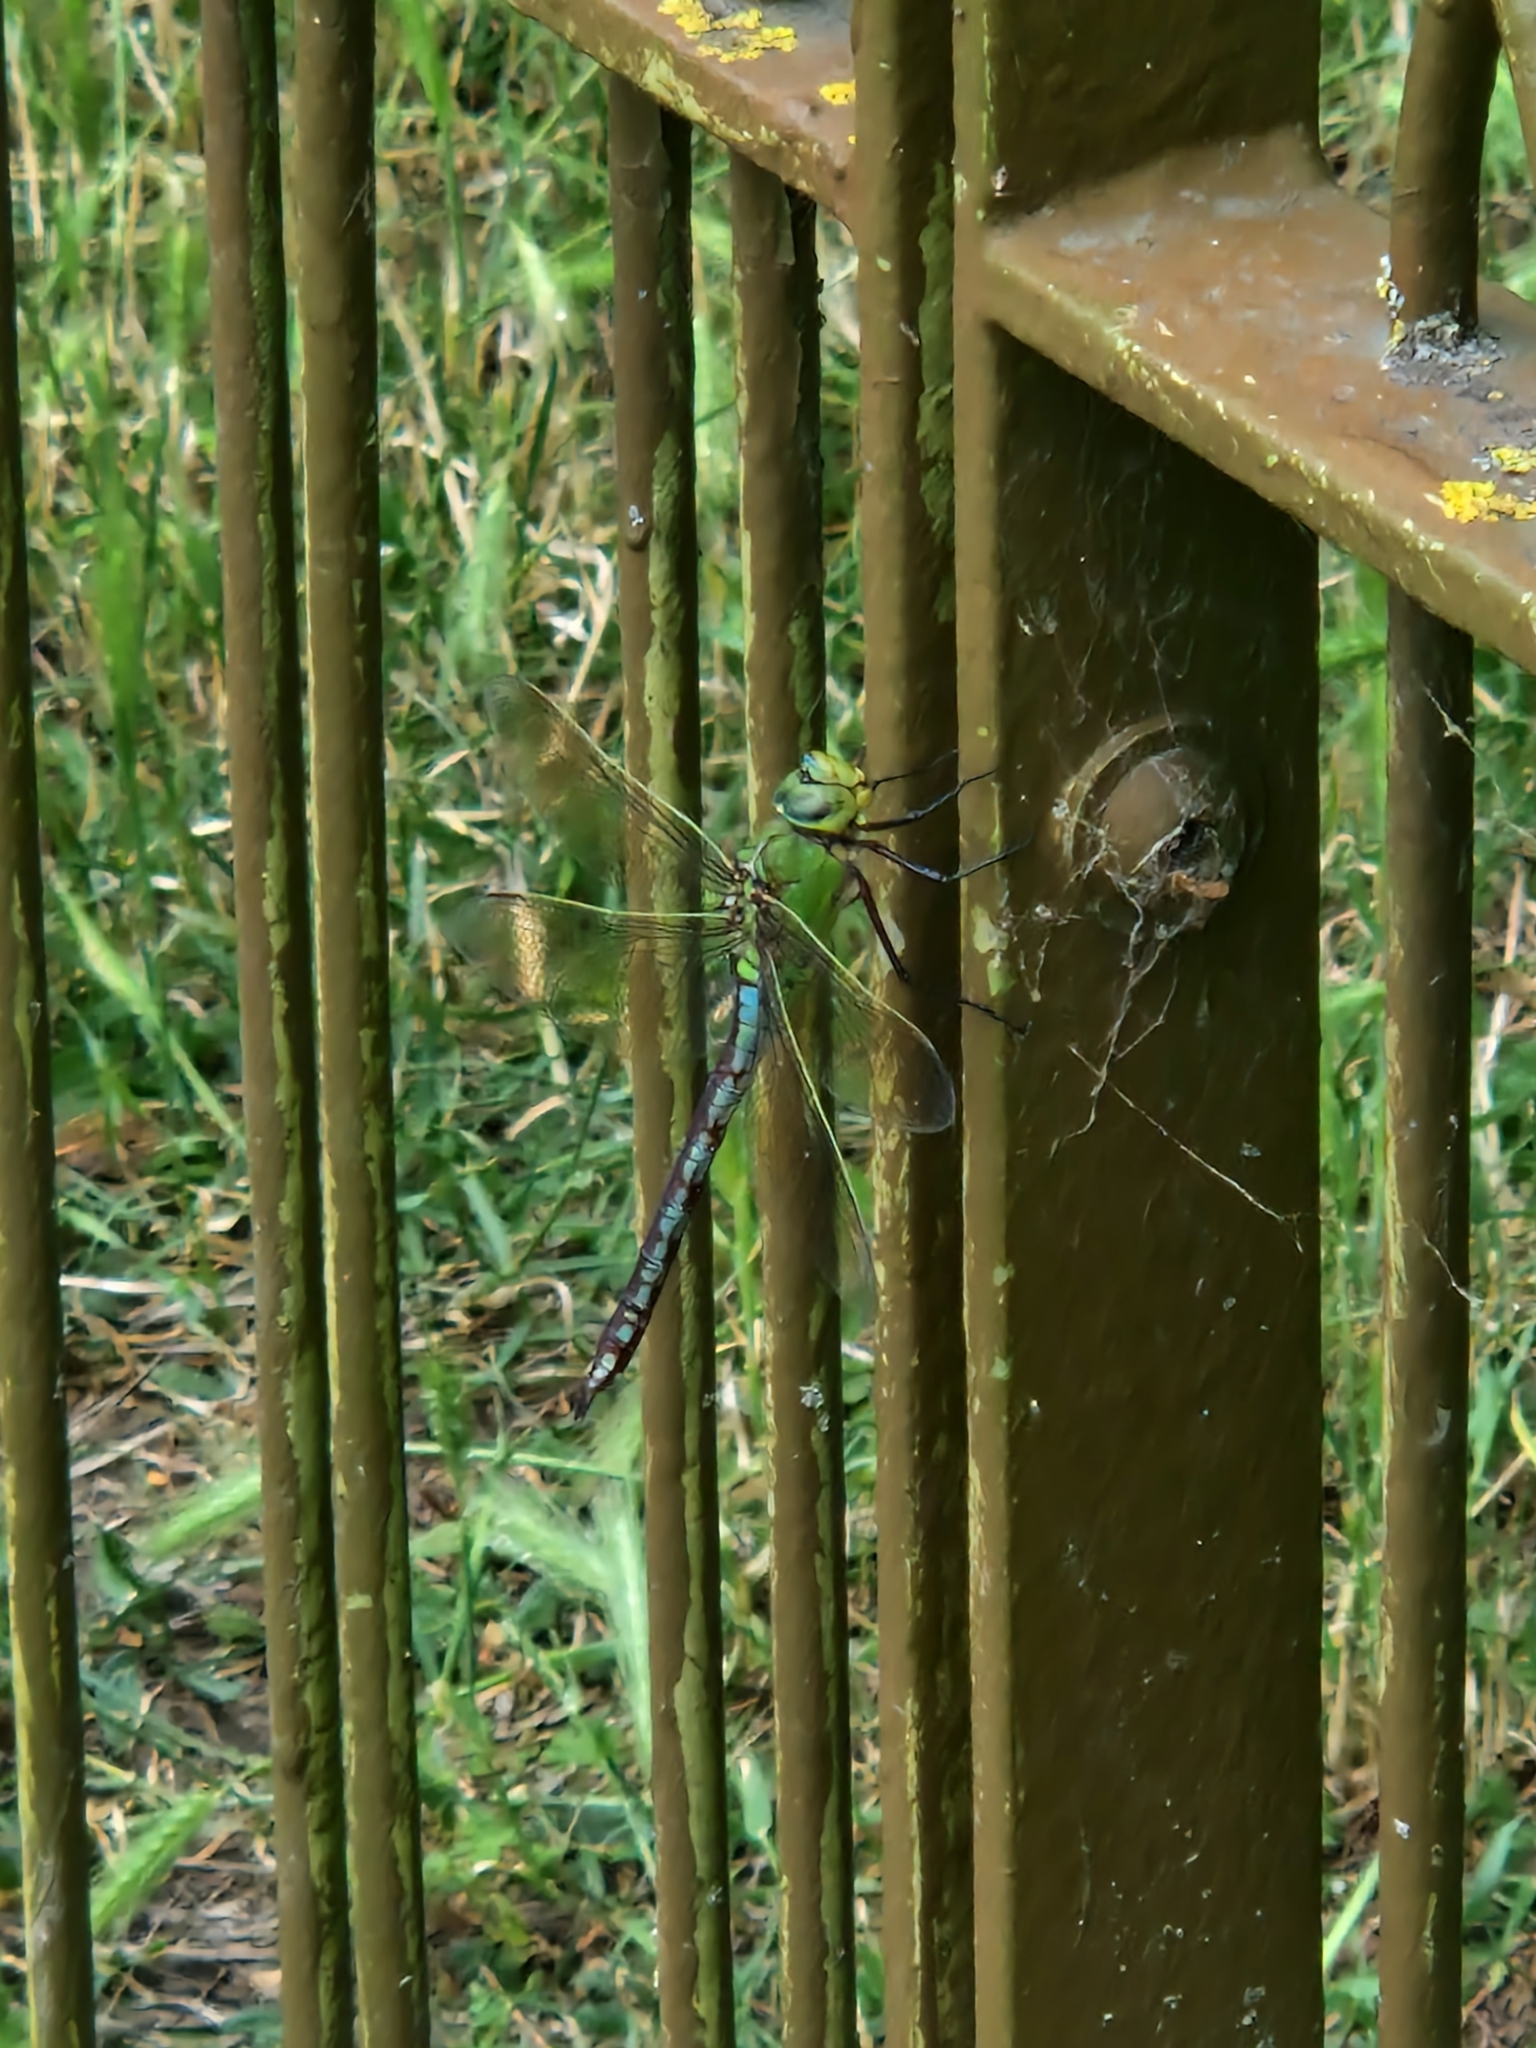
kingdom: Animalia
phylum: Arthropoda
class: Insecta
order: Odonata
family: Aeshnidae
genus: Anax
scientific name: Anax imperator
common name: Emperor dragonfly
